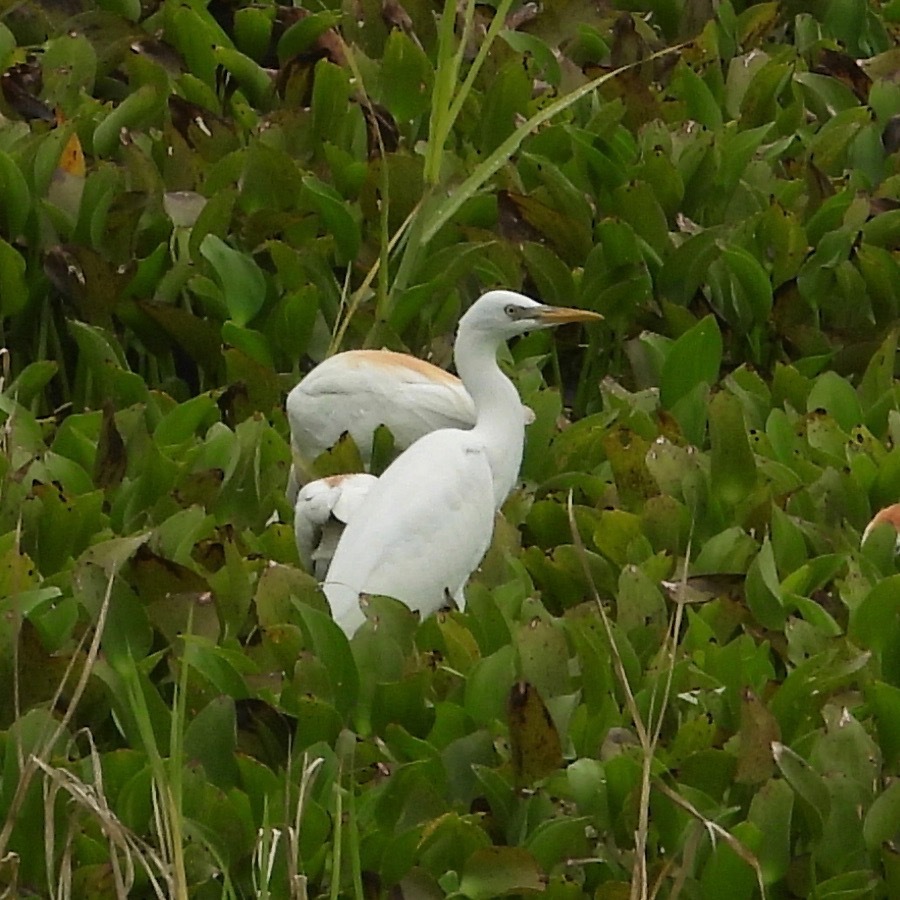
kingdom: Animalia
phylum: Chordata
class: Aves
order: Pelecaniformes
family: Ardeidae
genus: Bubulcus
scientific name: Bubulcus ibis
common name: Cattle egret
